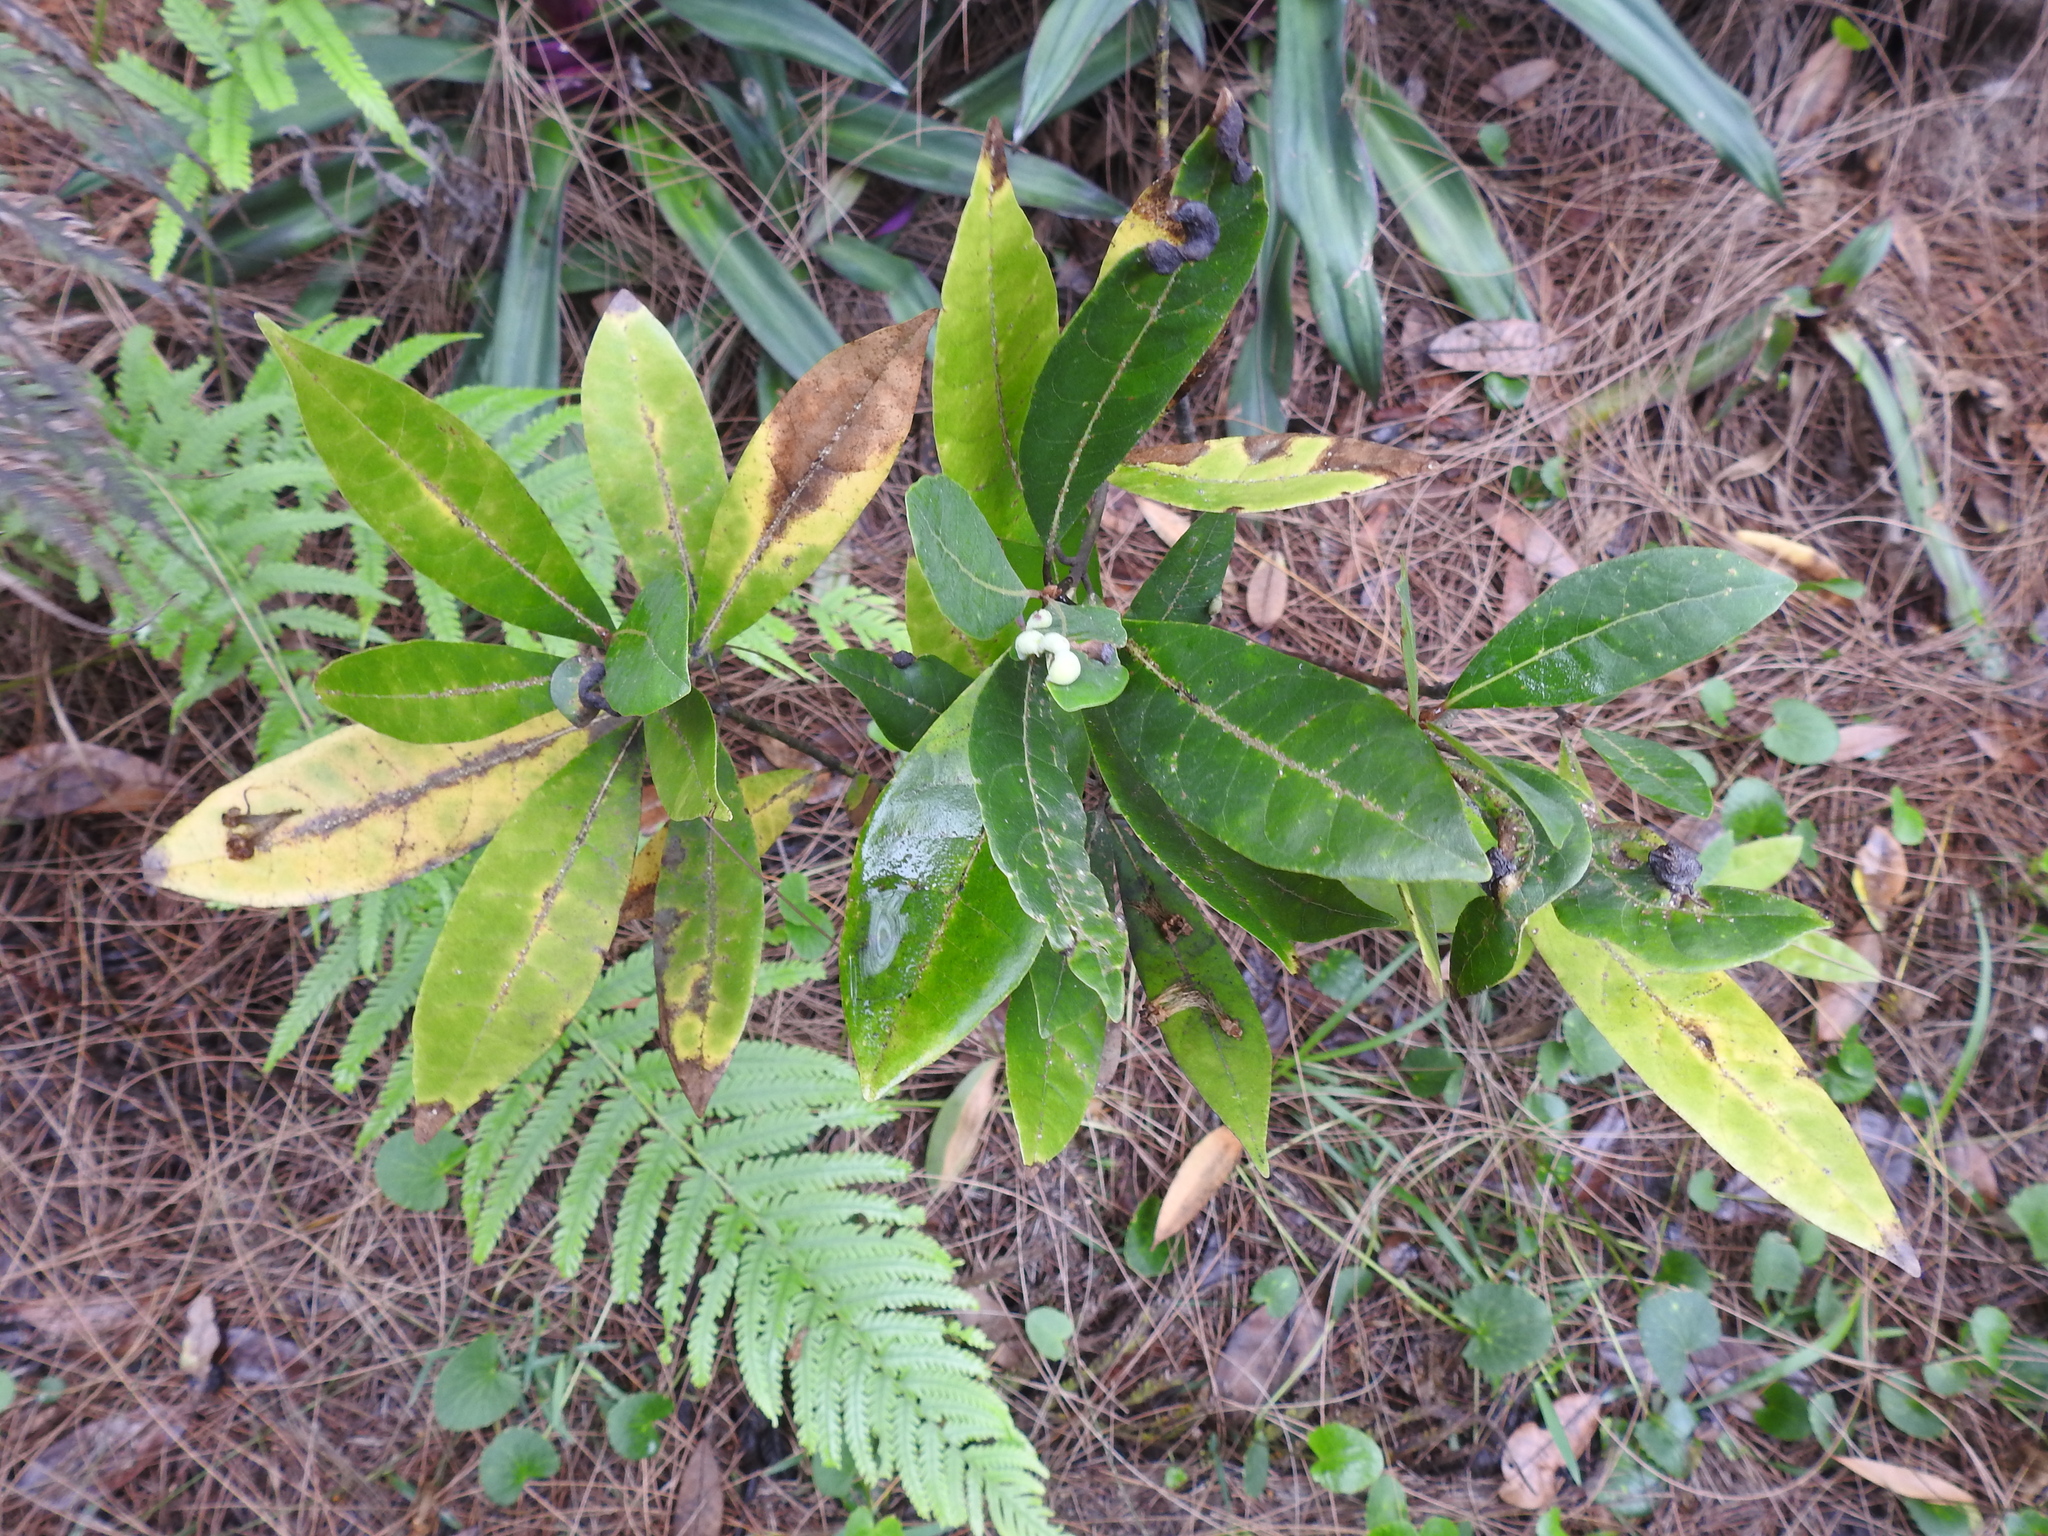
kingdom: Plantae
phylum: Tracheophyta
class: Magnoliopsida
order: Laurales
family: Lauraceae
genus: Persea
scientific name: Persea palustris
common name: Swampbay
